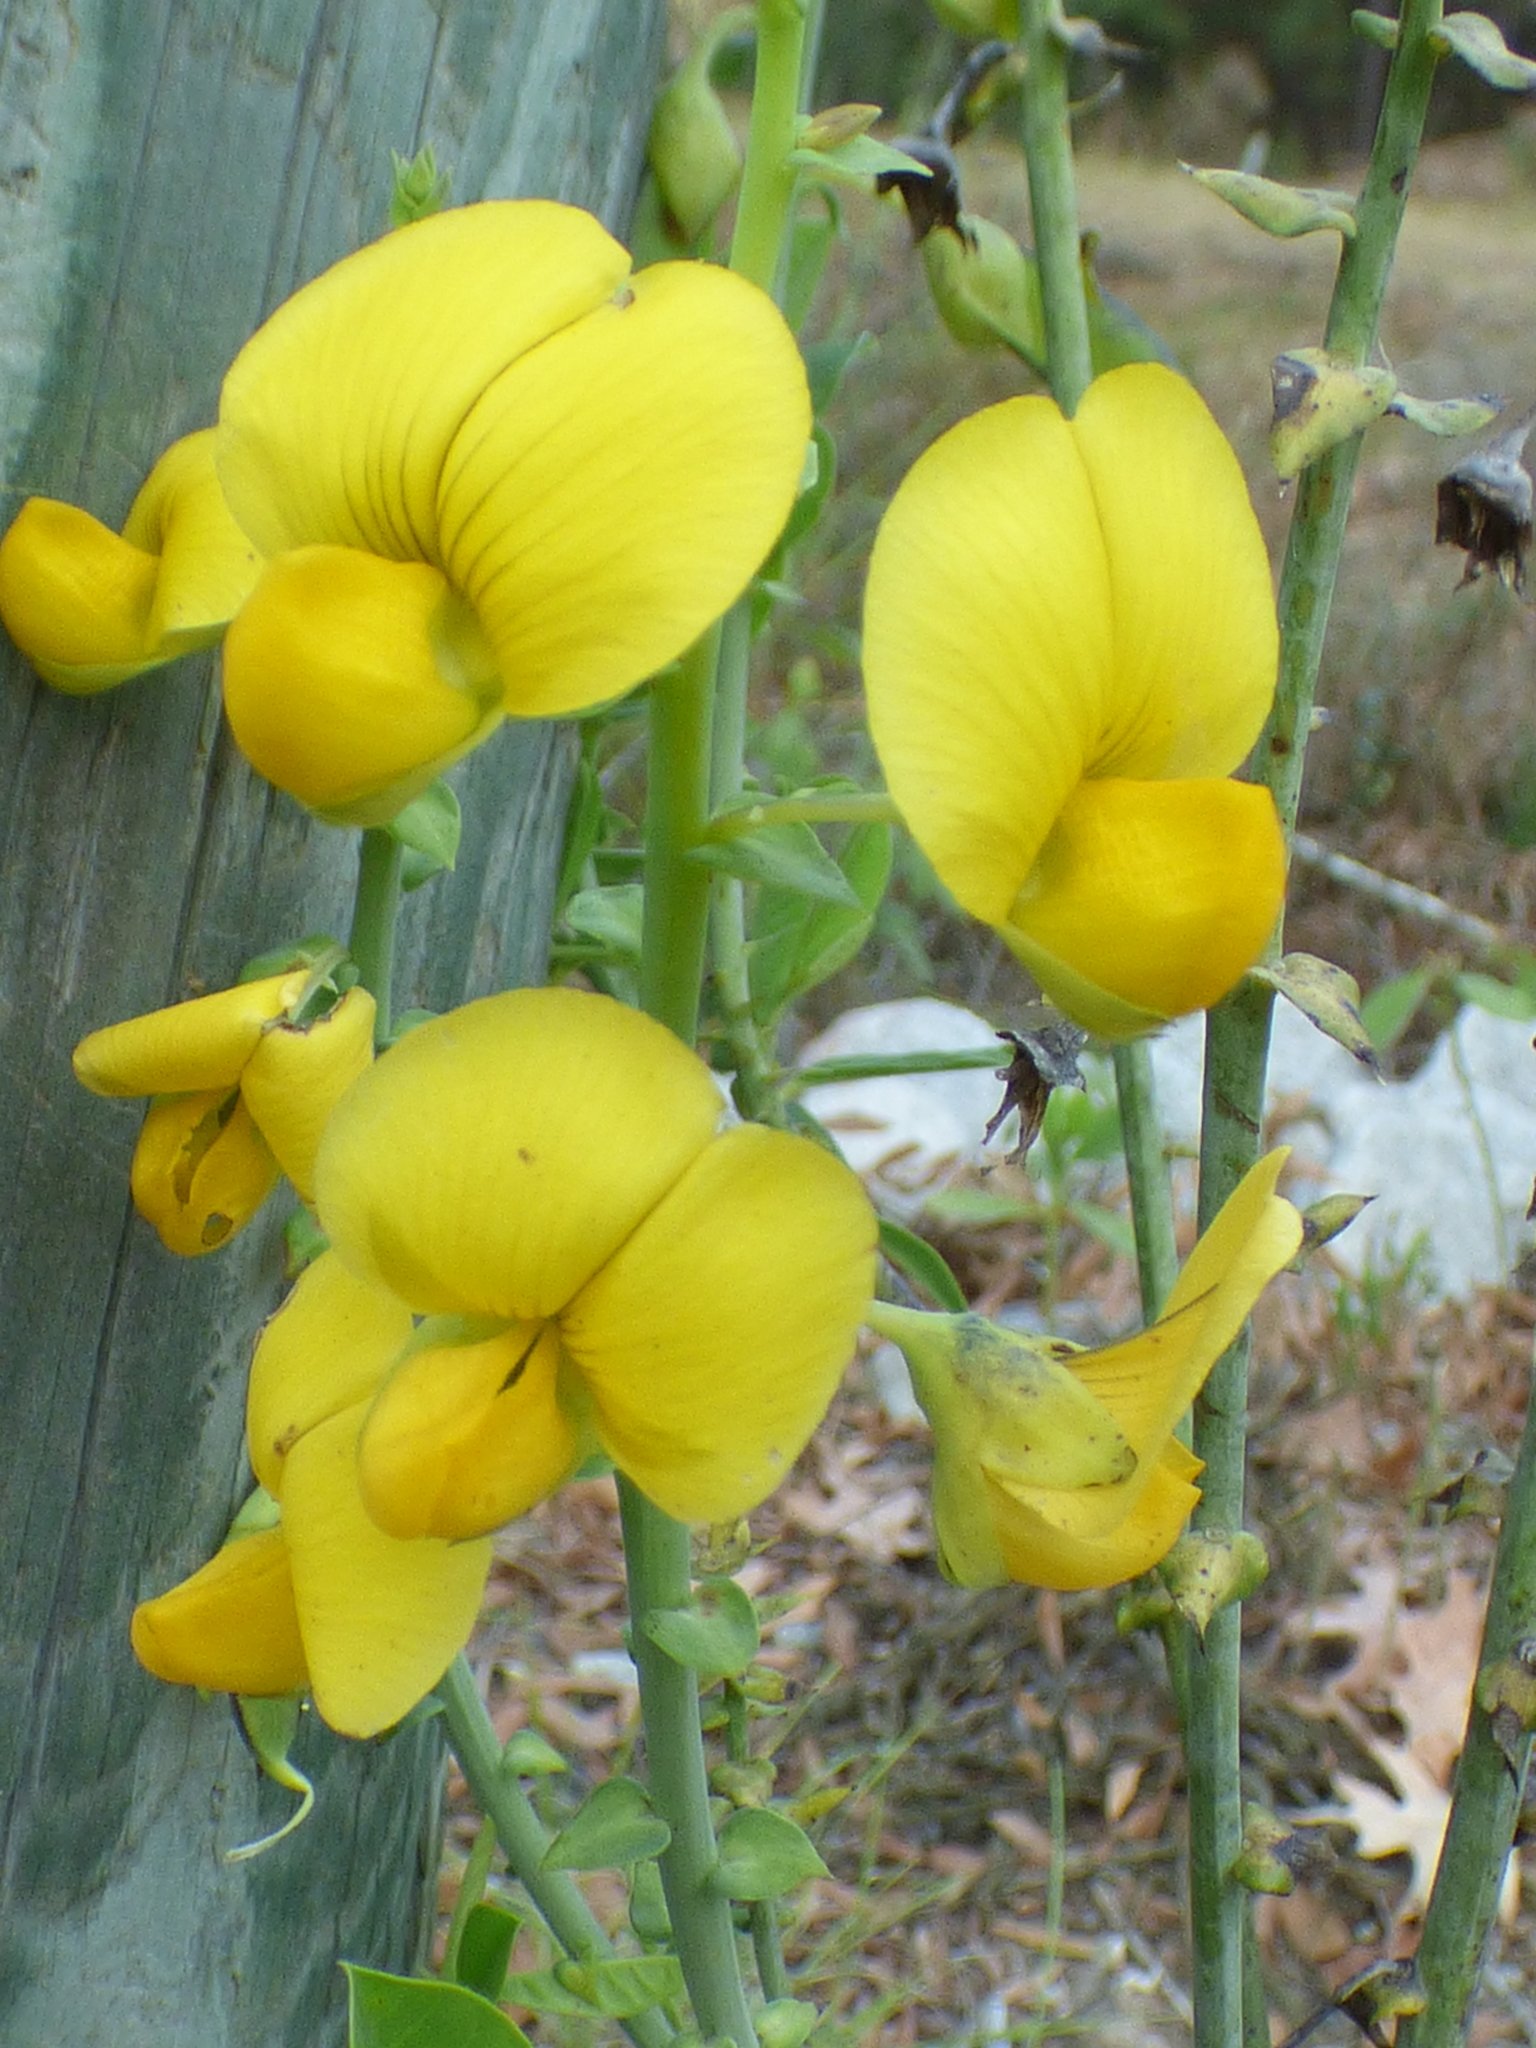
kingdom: Plantae
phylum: Tracheophyta
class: Magnoliopsida
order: Fabales
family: Fabaceae
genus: Crotalaria
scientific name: Crotalaria spectabilis
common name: Showy rattlebox
